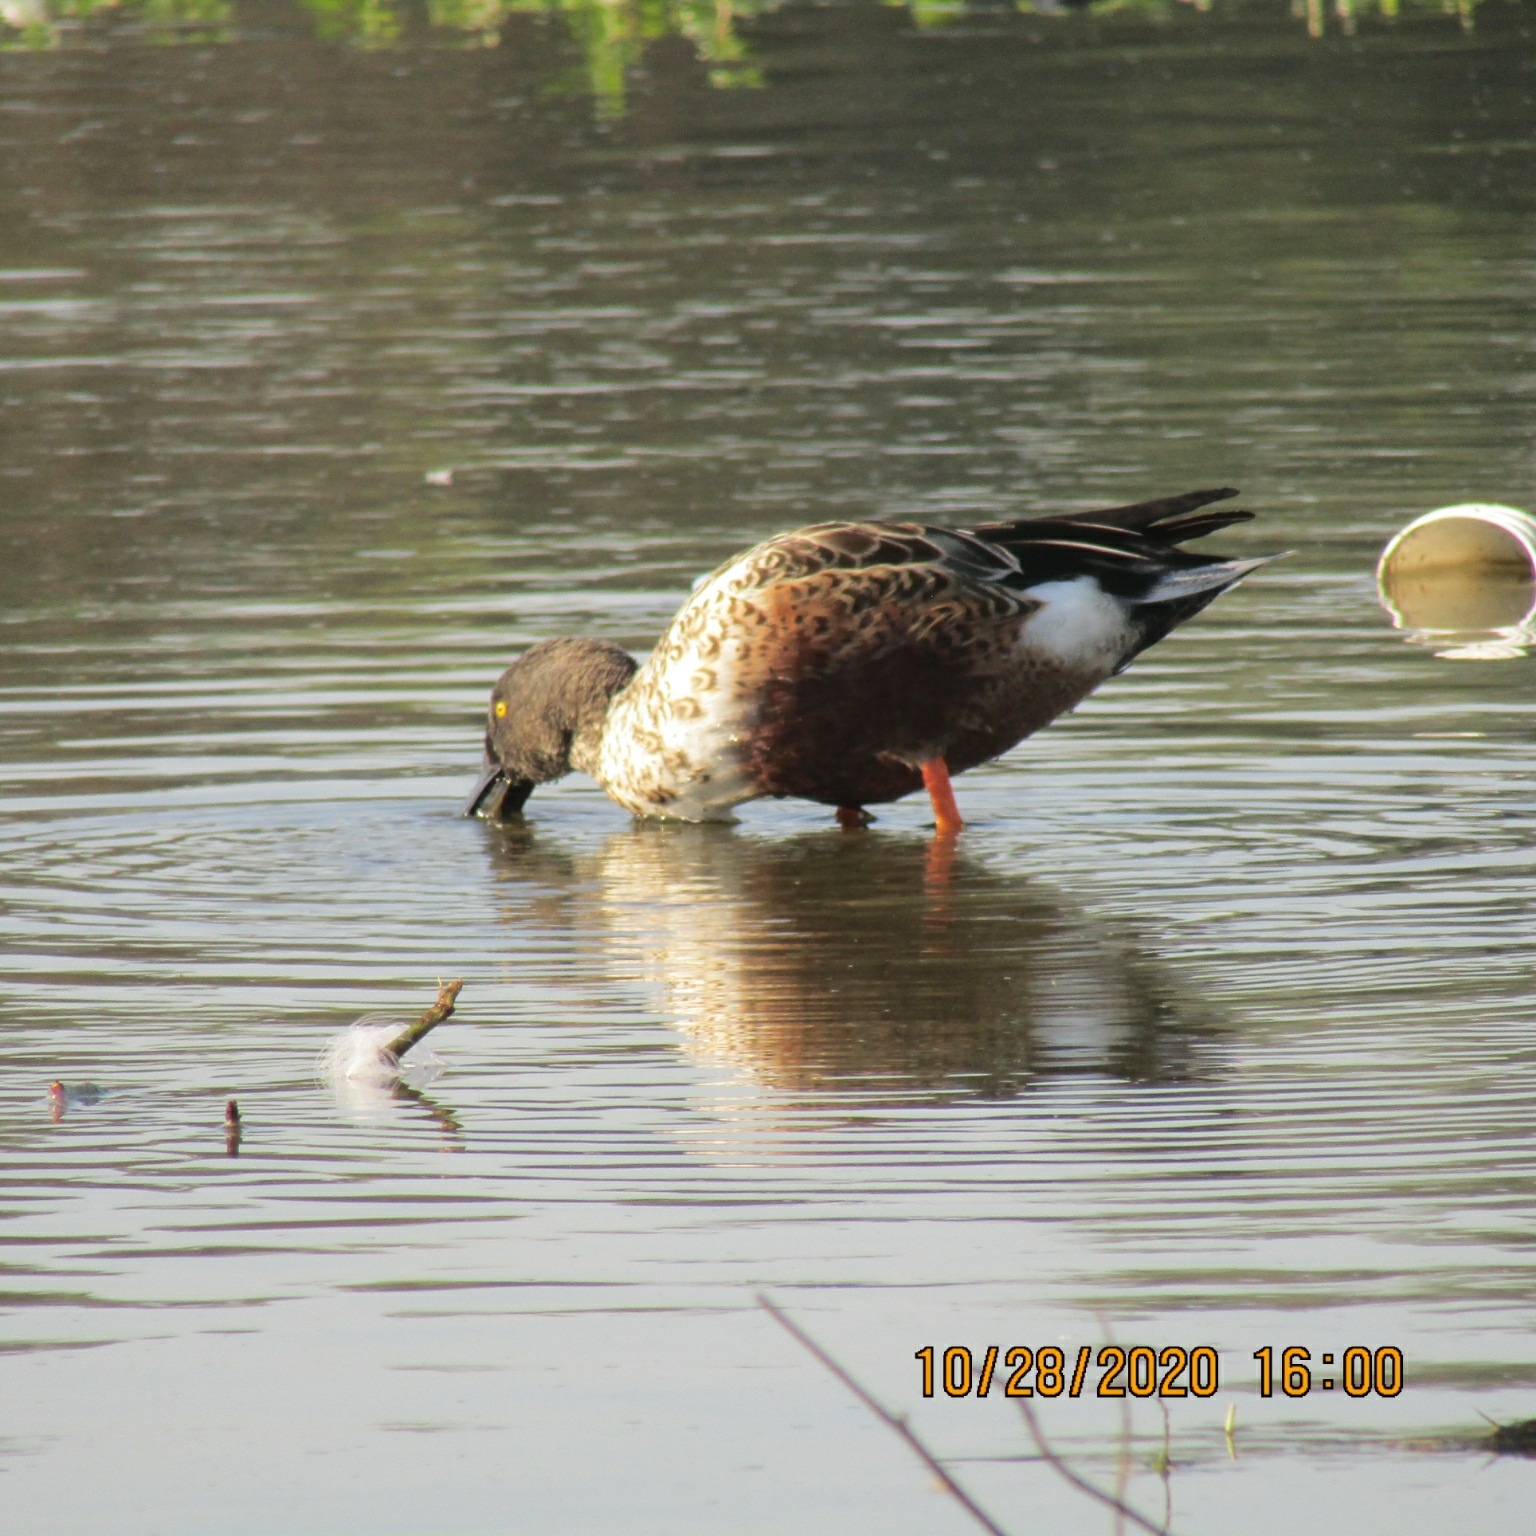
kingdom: Animalia
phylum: Chordata
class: Aves
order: Anseriformes
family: Anatidae
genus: Spatula
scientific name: Spatula clypeata
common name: Northern shoveler
